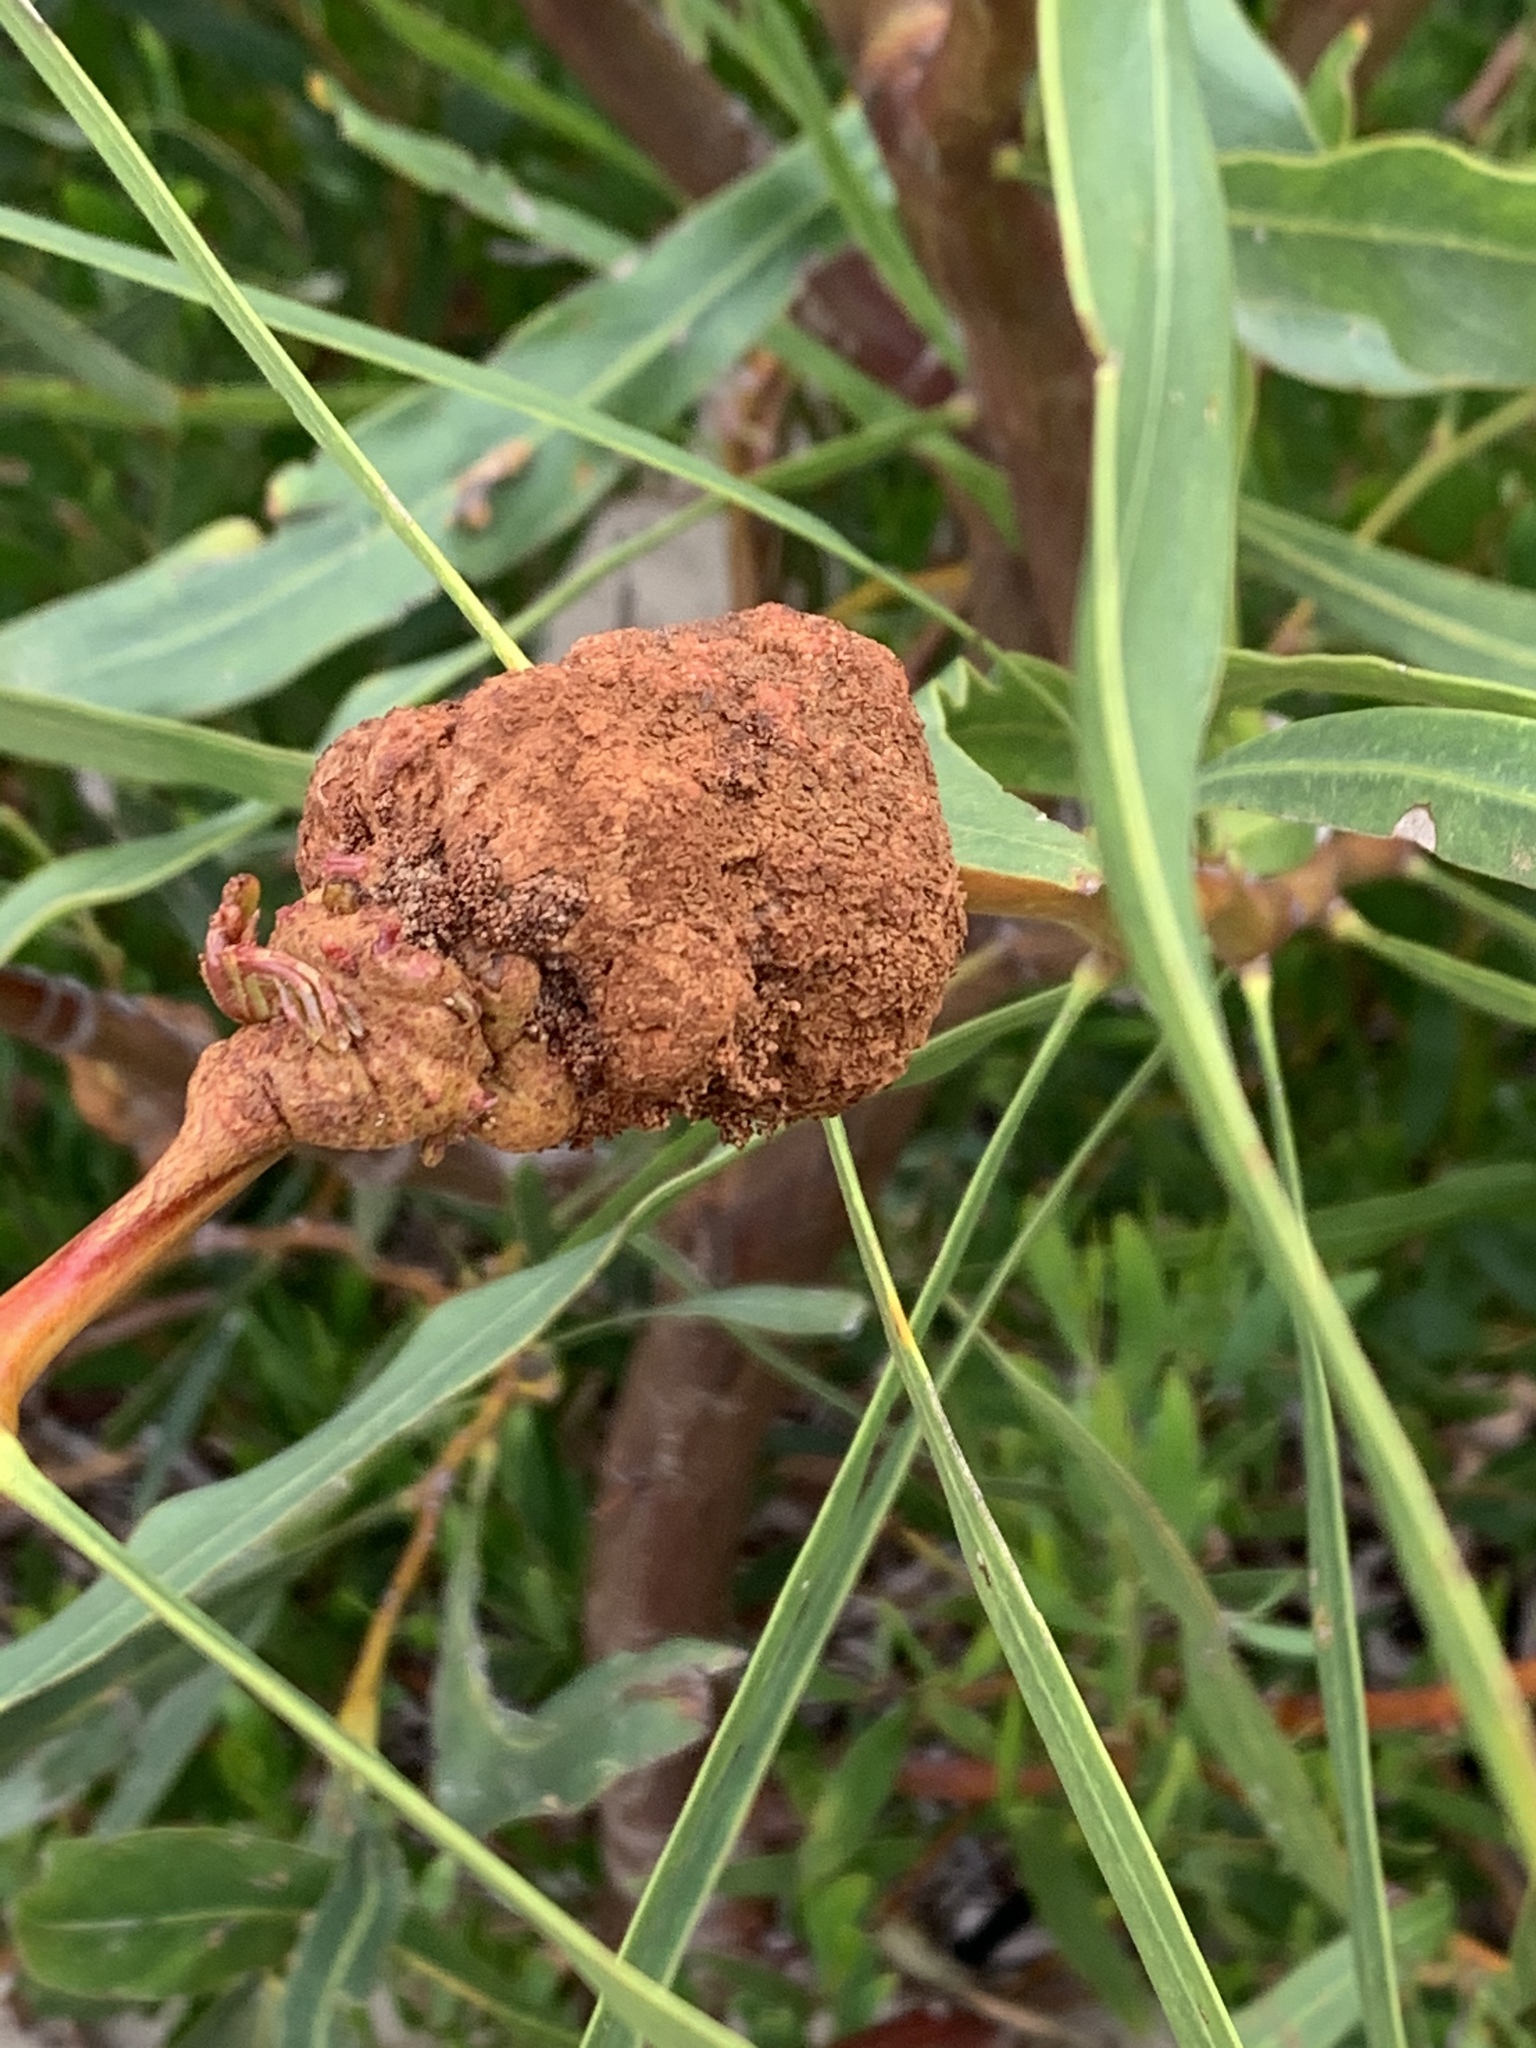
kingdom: Fungi
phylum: Basidiomycota
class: Pucciniomycetes
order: Pucciniales
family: Uromycladiaceae
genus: Uromycladium
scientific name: Uromycladium morrisii
